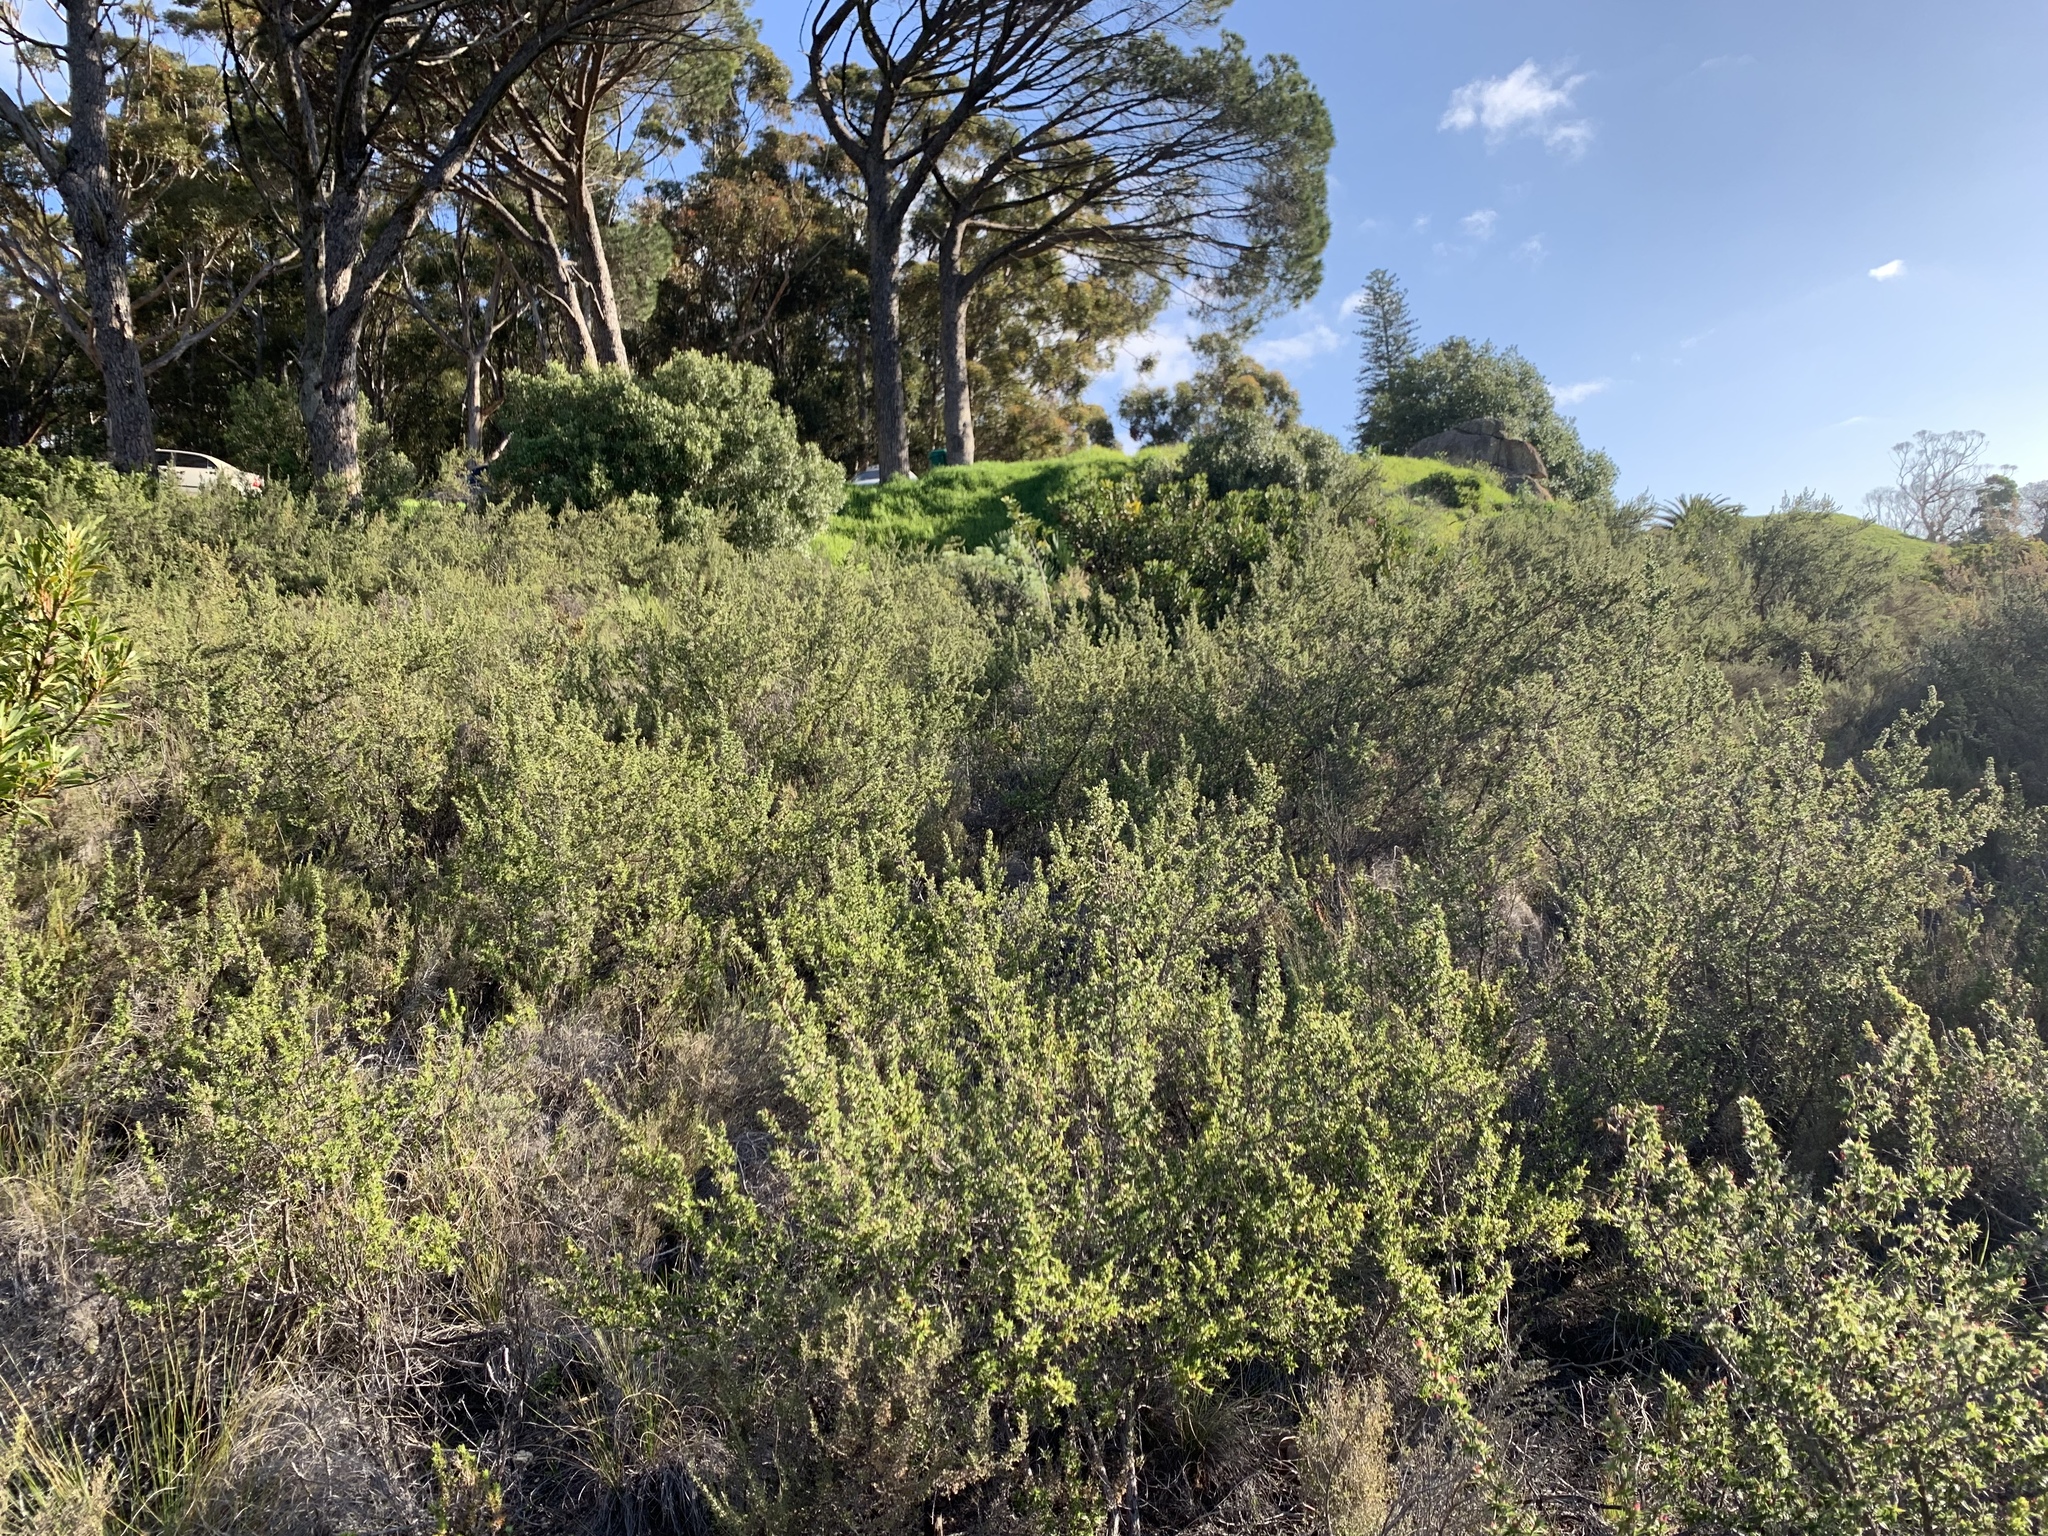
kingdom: Plantae
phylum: Tracheophyta
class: Magnoliopsida
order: Rosales
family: Rosaceae
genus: Cliffortia
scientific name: Cliffortia ruscifolia
